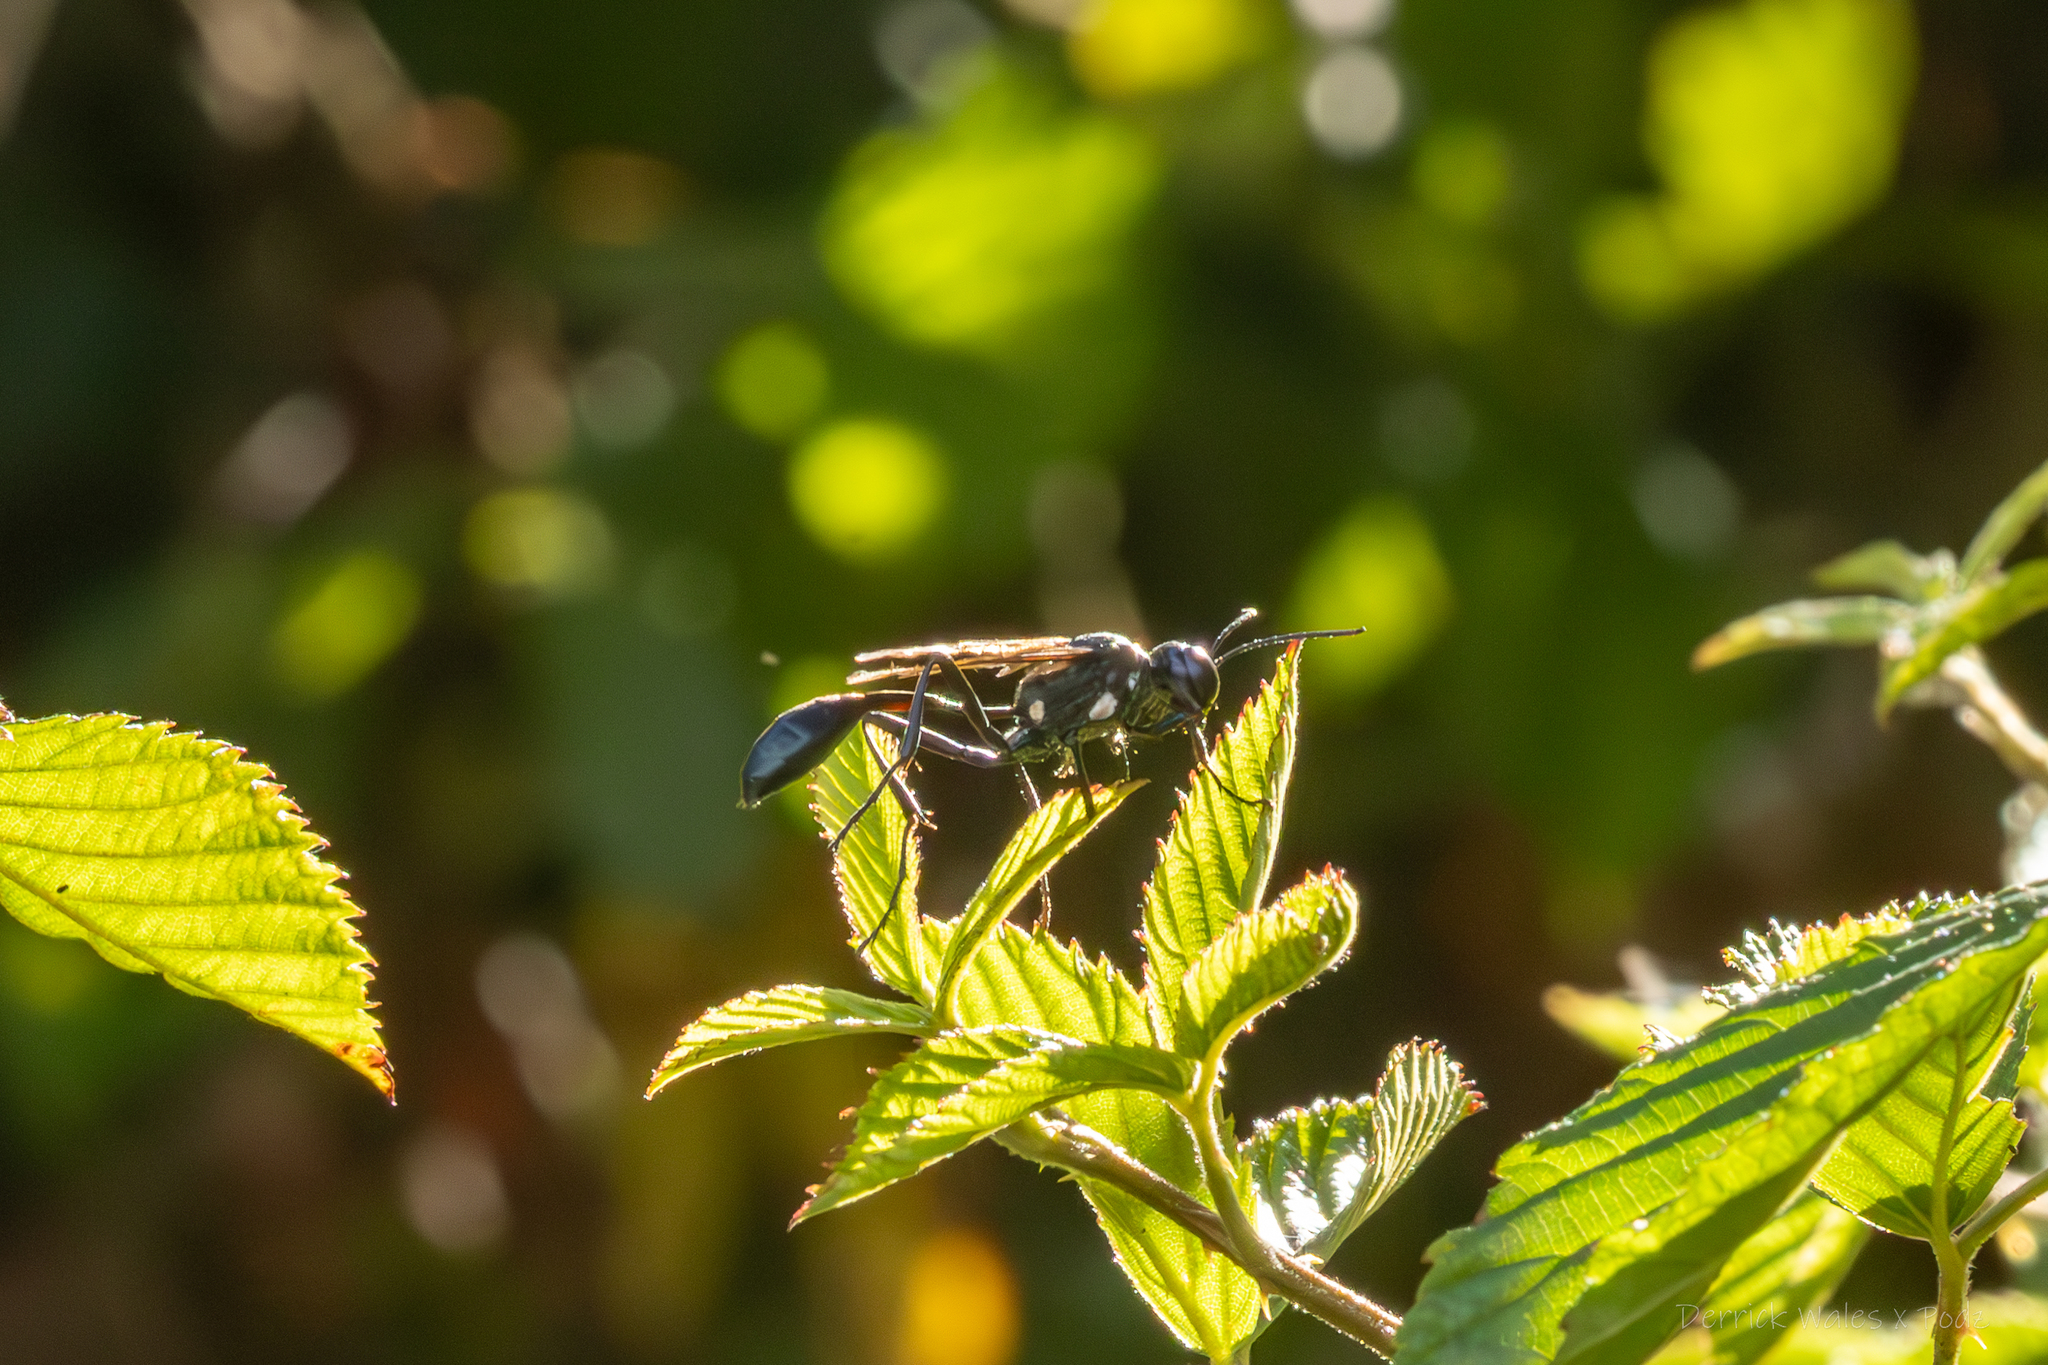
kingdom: Animalia
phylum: Arthropoda
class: Insecta
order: Hymenoptera
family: Sphecidae
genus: Eremnophila
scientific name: Eremnophila aureonotata
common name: Gold-marked thread-waisted wasp
